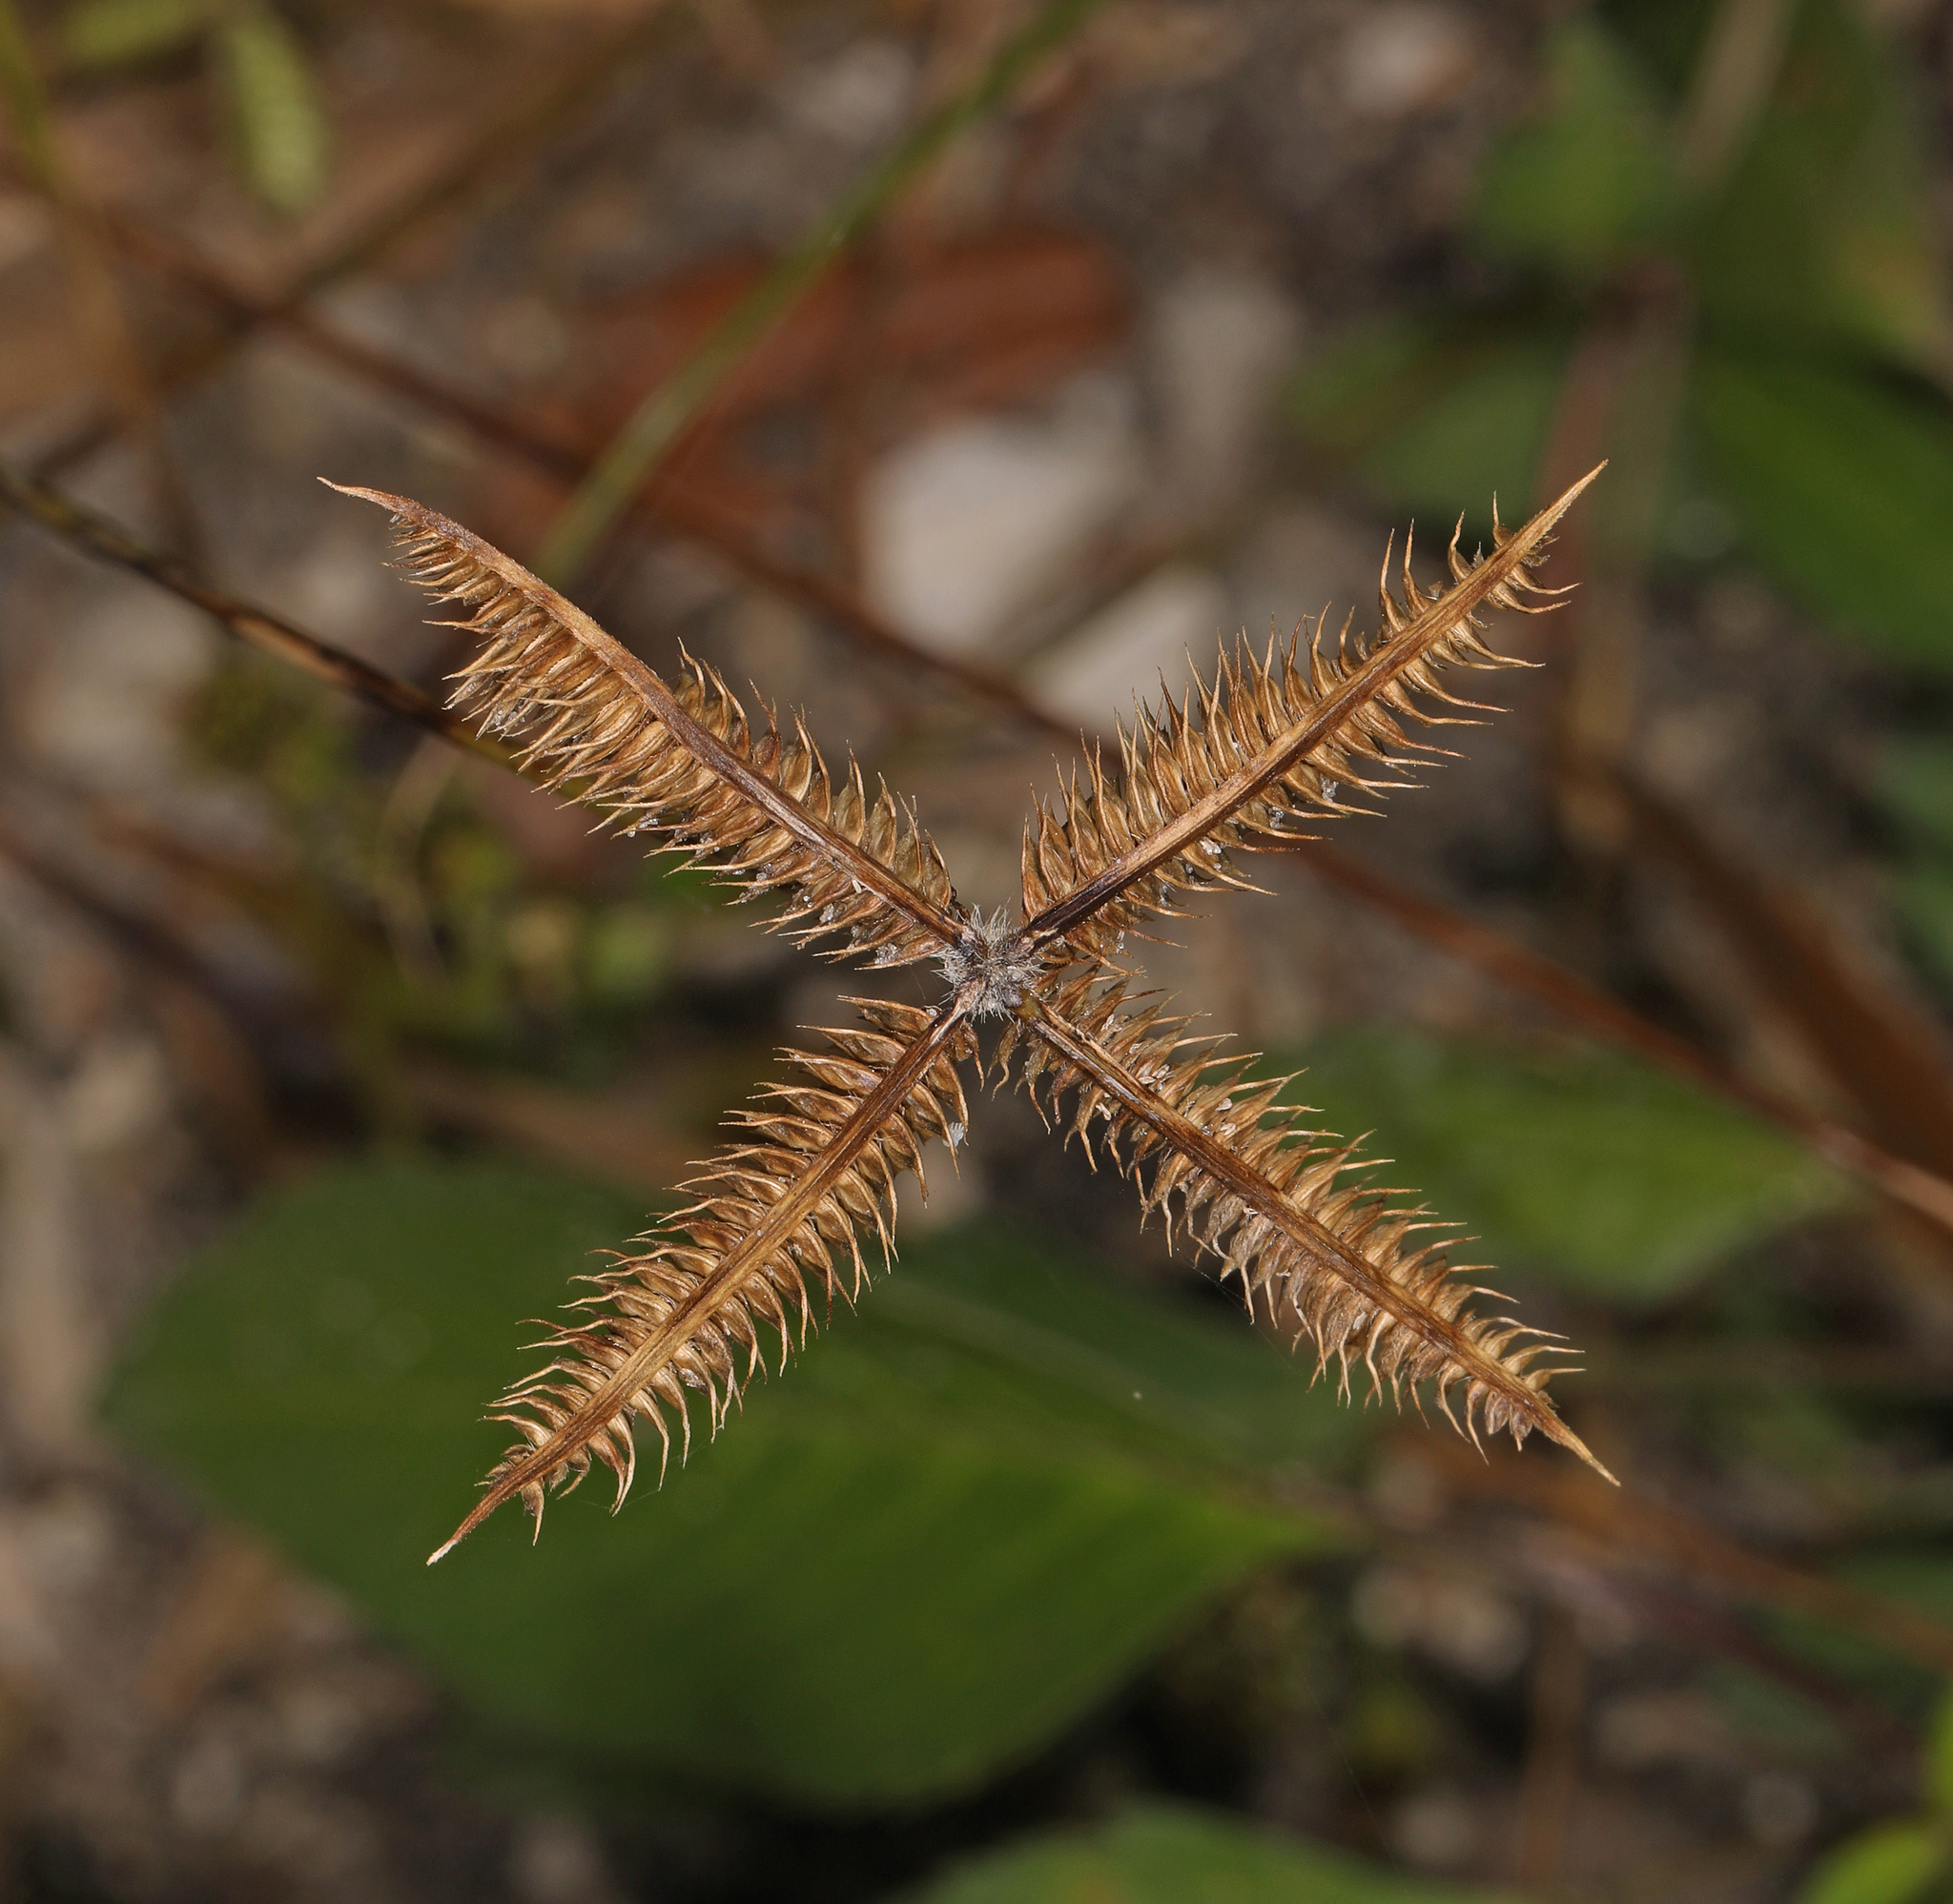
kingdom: Plantae
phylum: Tracheophyta
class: Liliopsida
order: Poales
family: Poaceae
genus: Dactyloctenium
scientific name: Dactyloctenium aegyptium
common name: Egyptian grass
